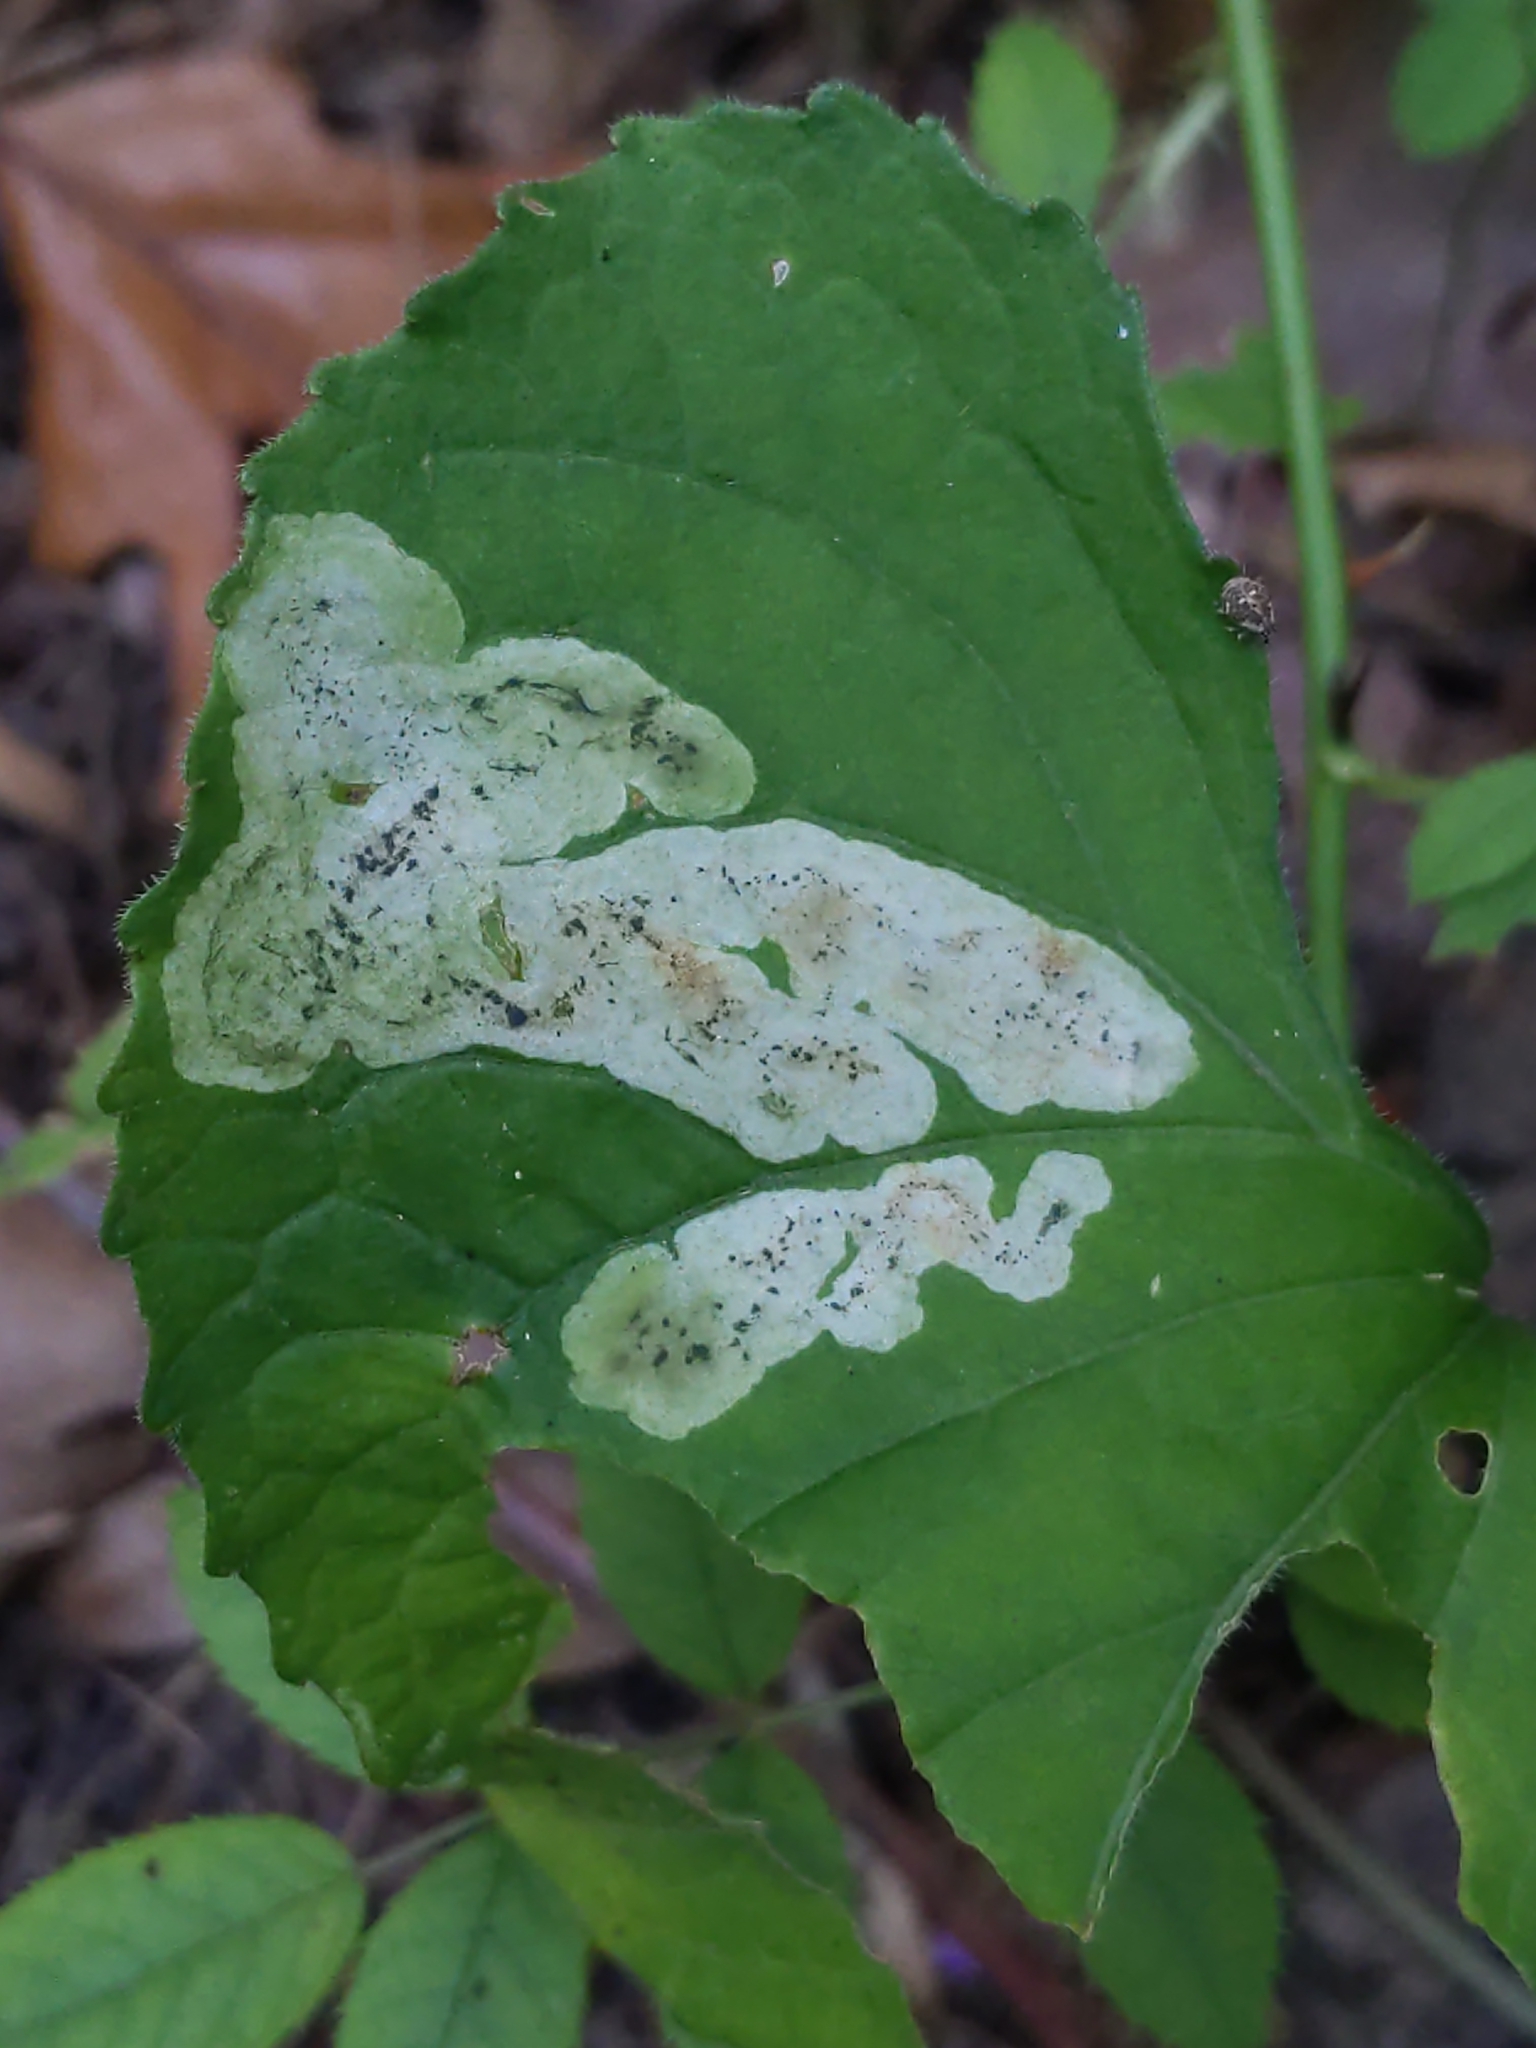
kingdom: Animalia
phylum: Arthropoda
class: Insecta
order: Diptera
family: Agromyzidae
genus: Liriomyza
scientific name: Liriomyza violivora
